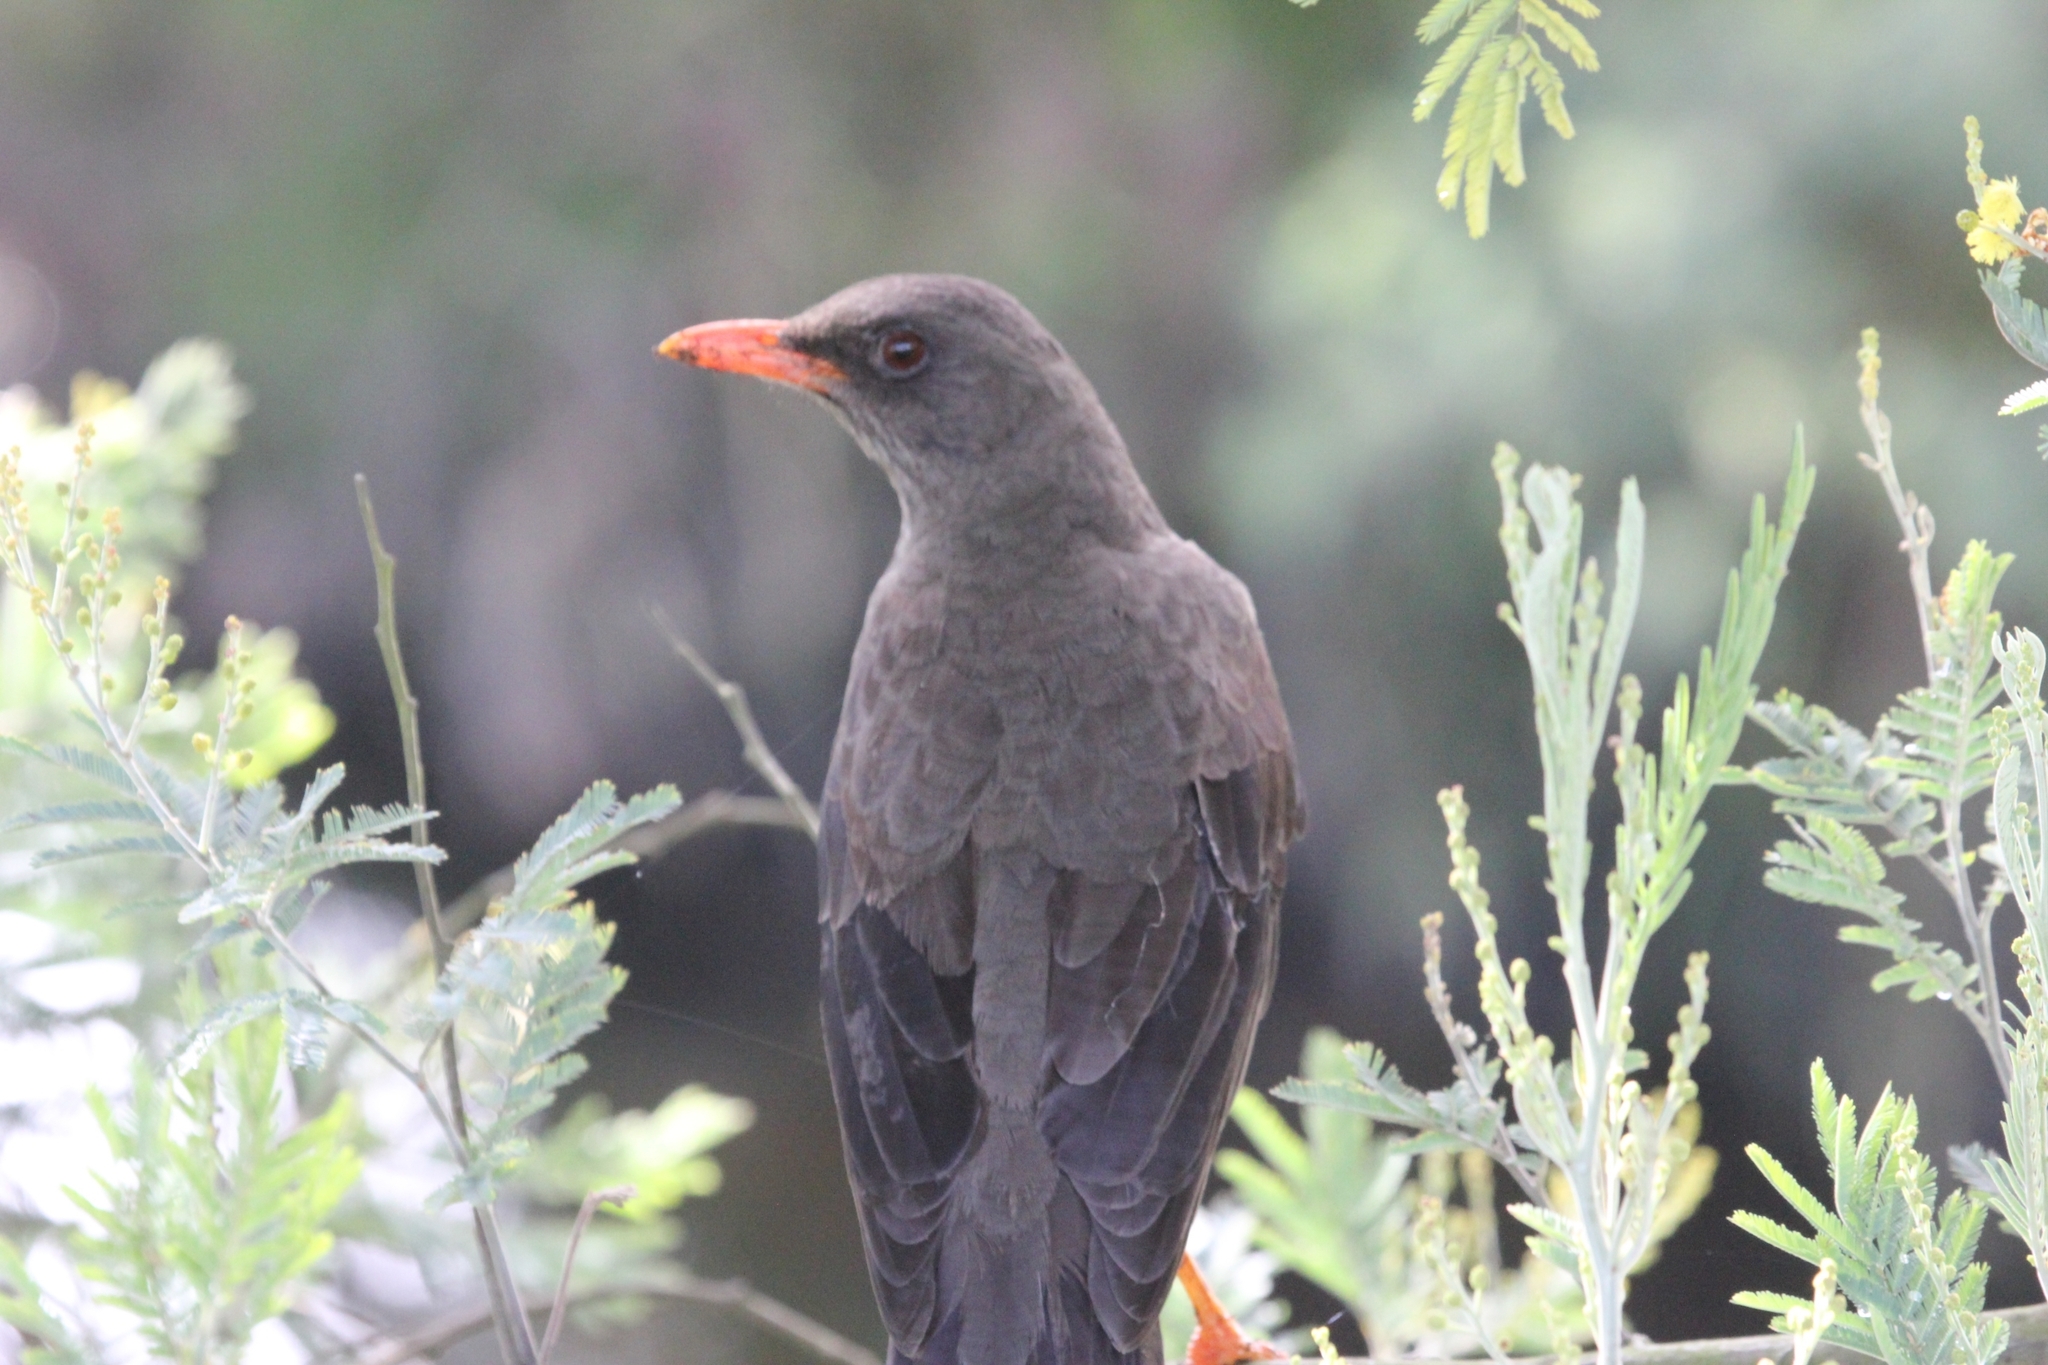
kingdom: Animalia
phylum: Chordata
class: Aves
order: Passeriformes
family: Turdidae
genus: Turdus
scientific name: Turdus fuscater
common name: Great thrush
